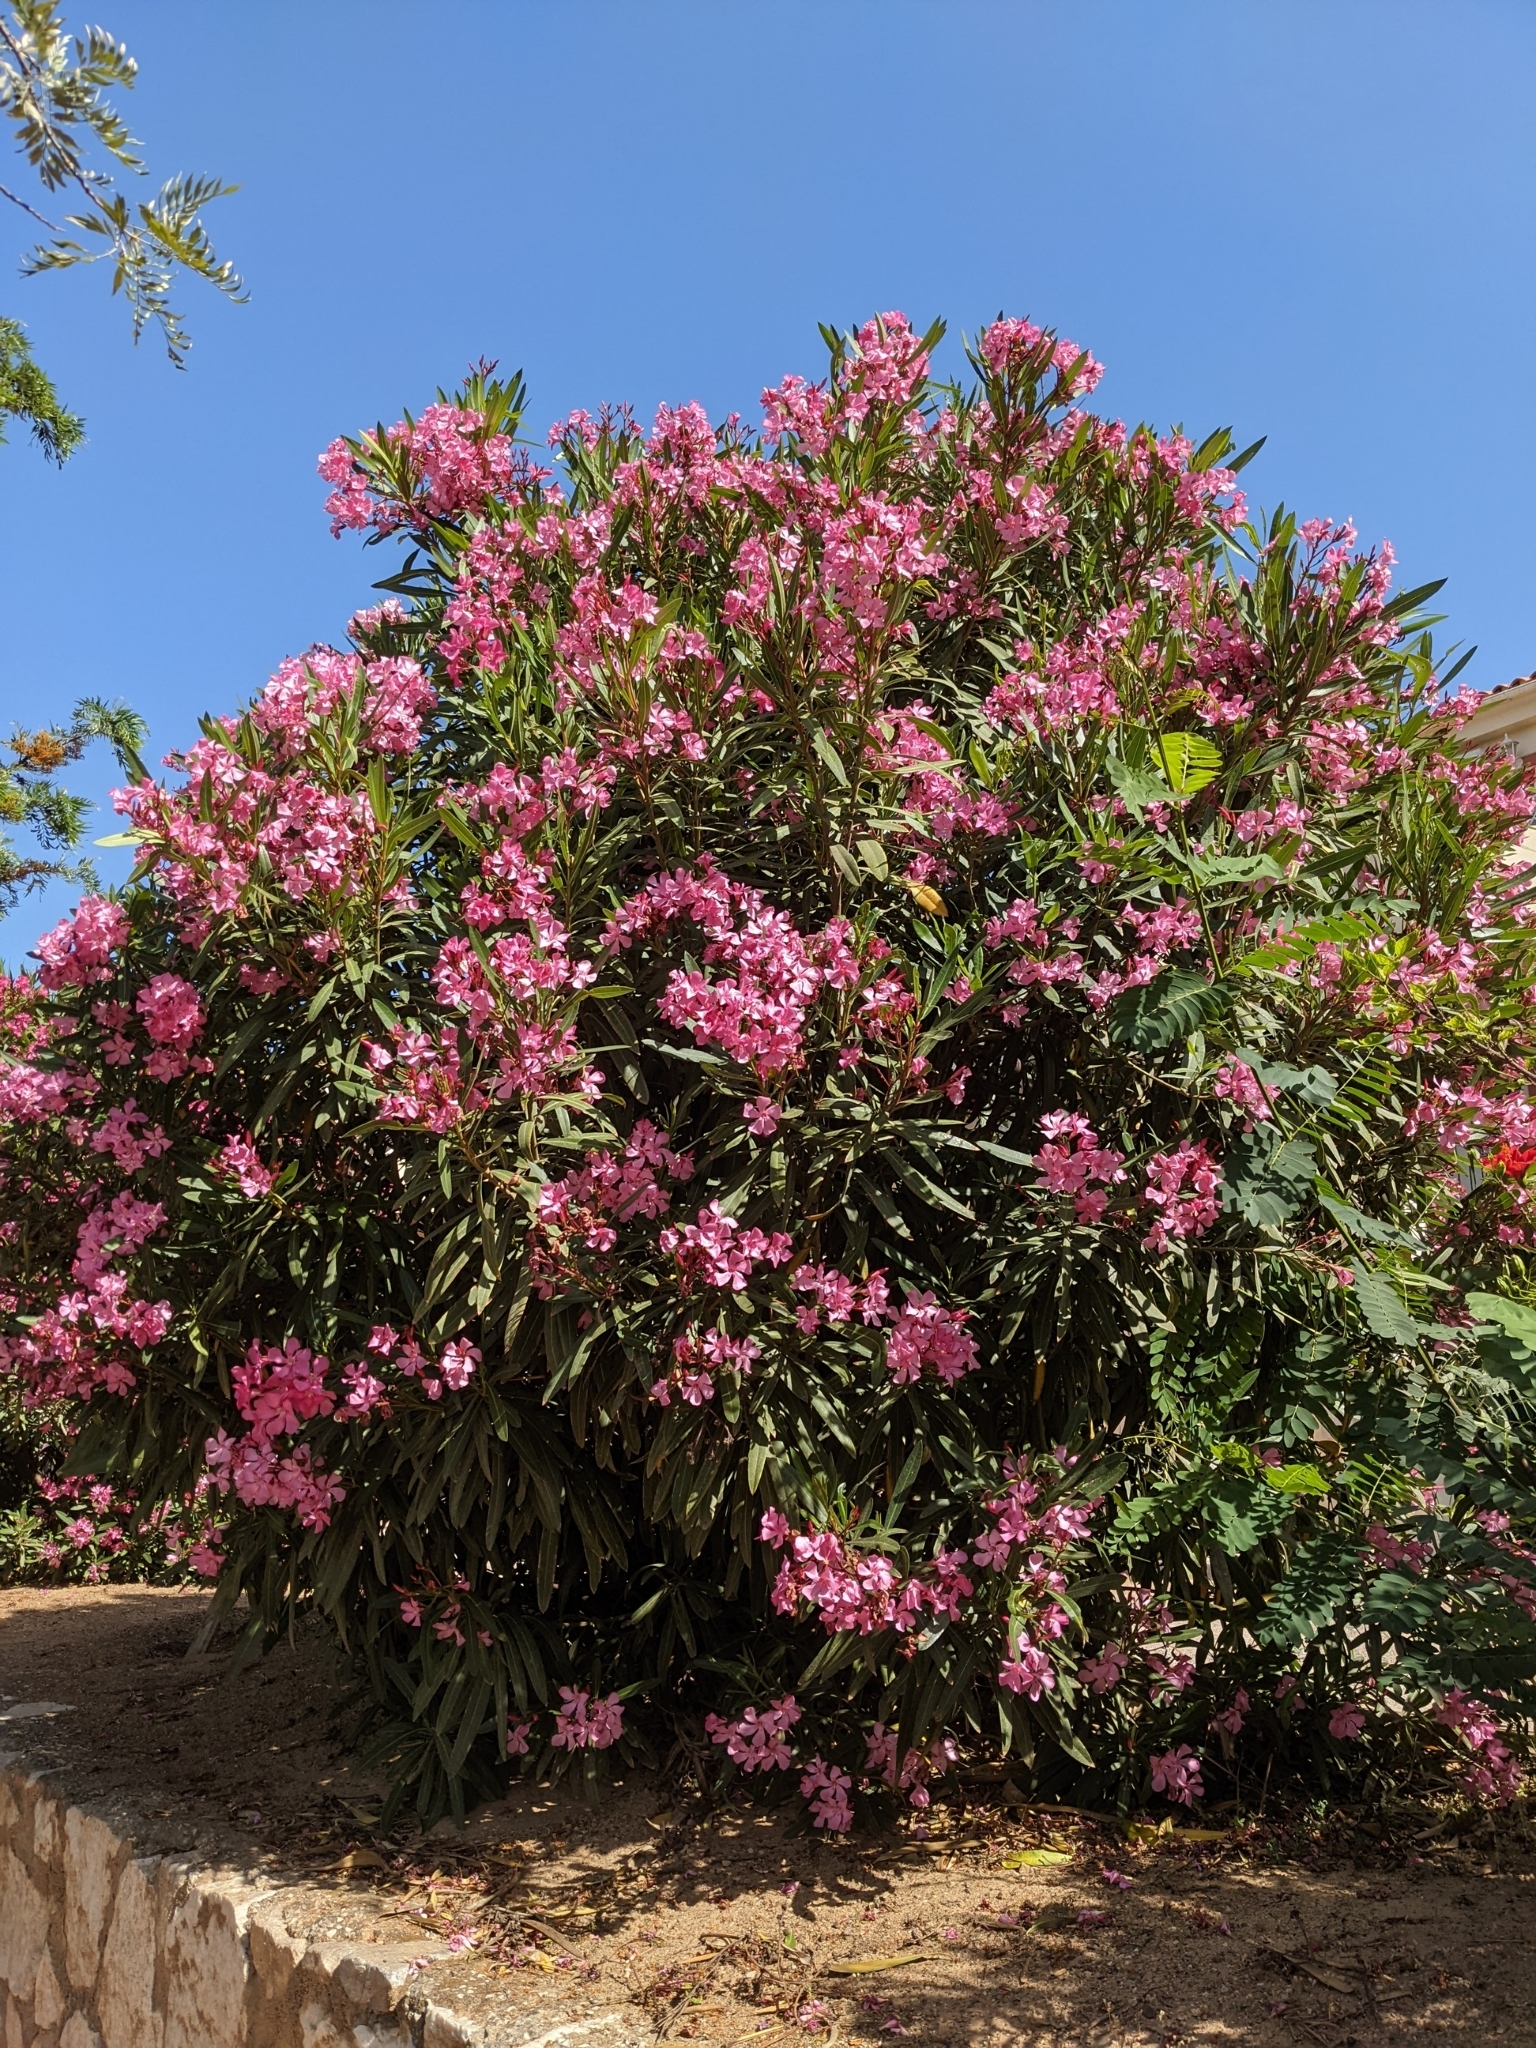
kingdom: Plantae
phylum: Tracheophyta
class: Magnoliopsida
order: Gentianales
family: Apocynaceae
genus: Nerium
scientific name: Nerium oleander
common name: Oleander
